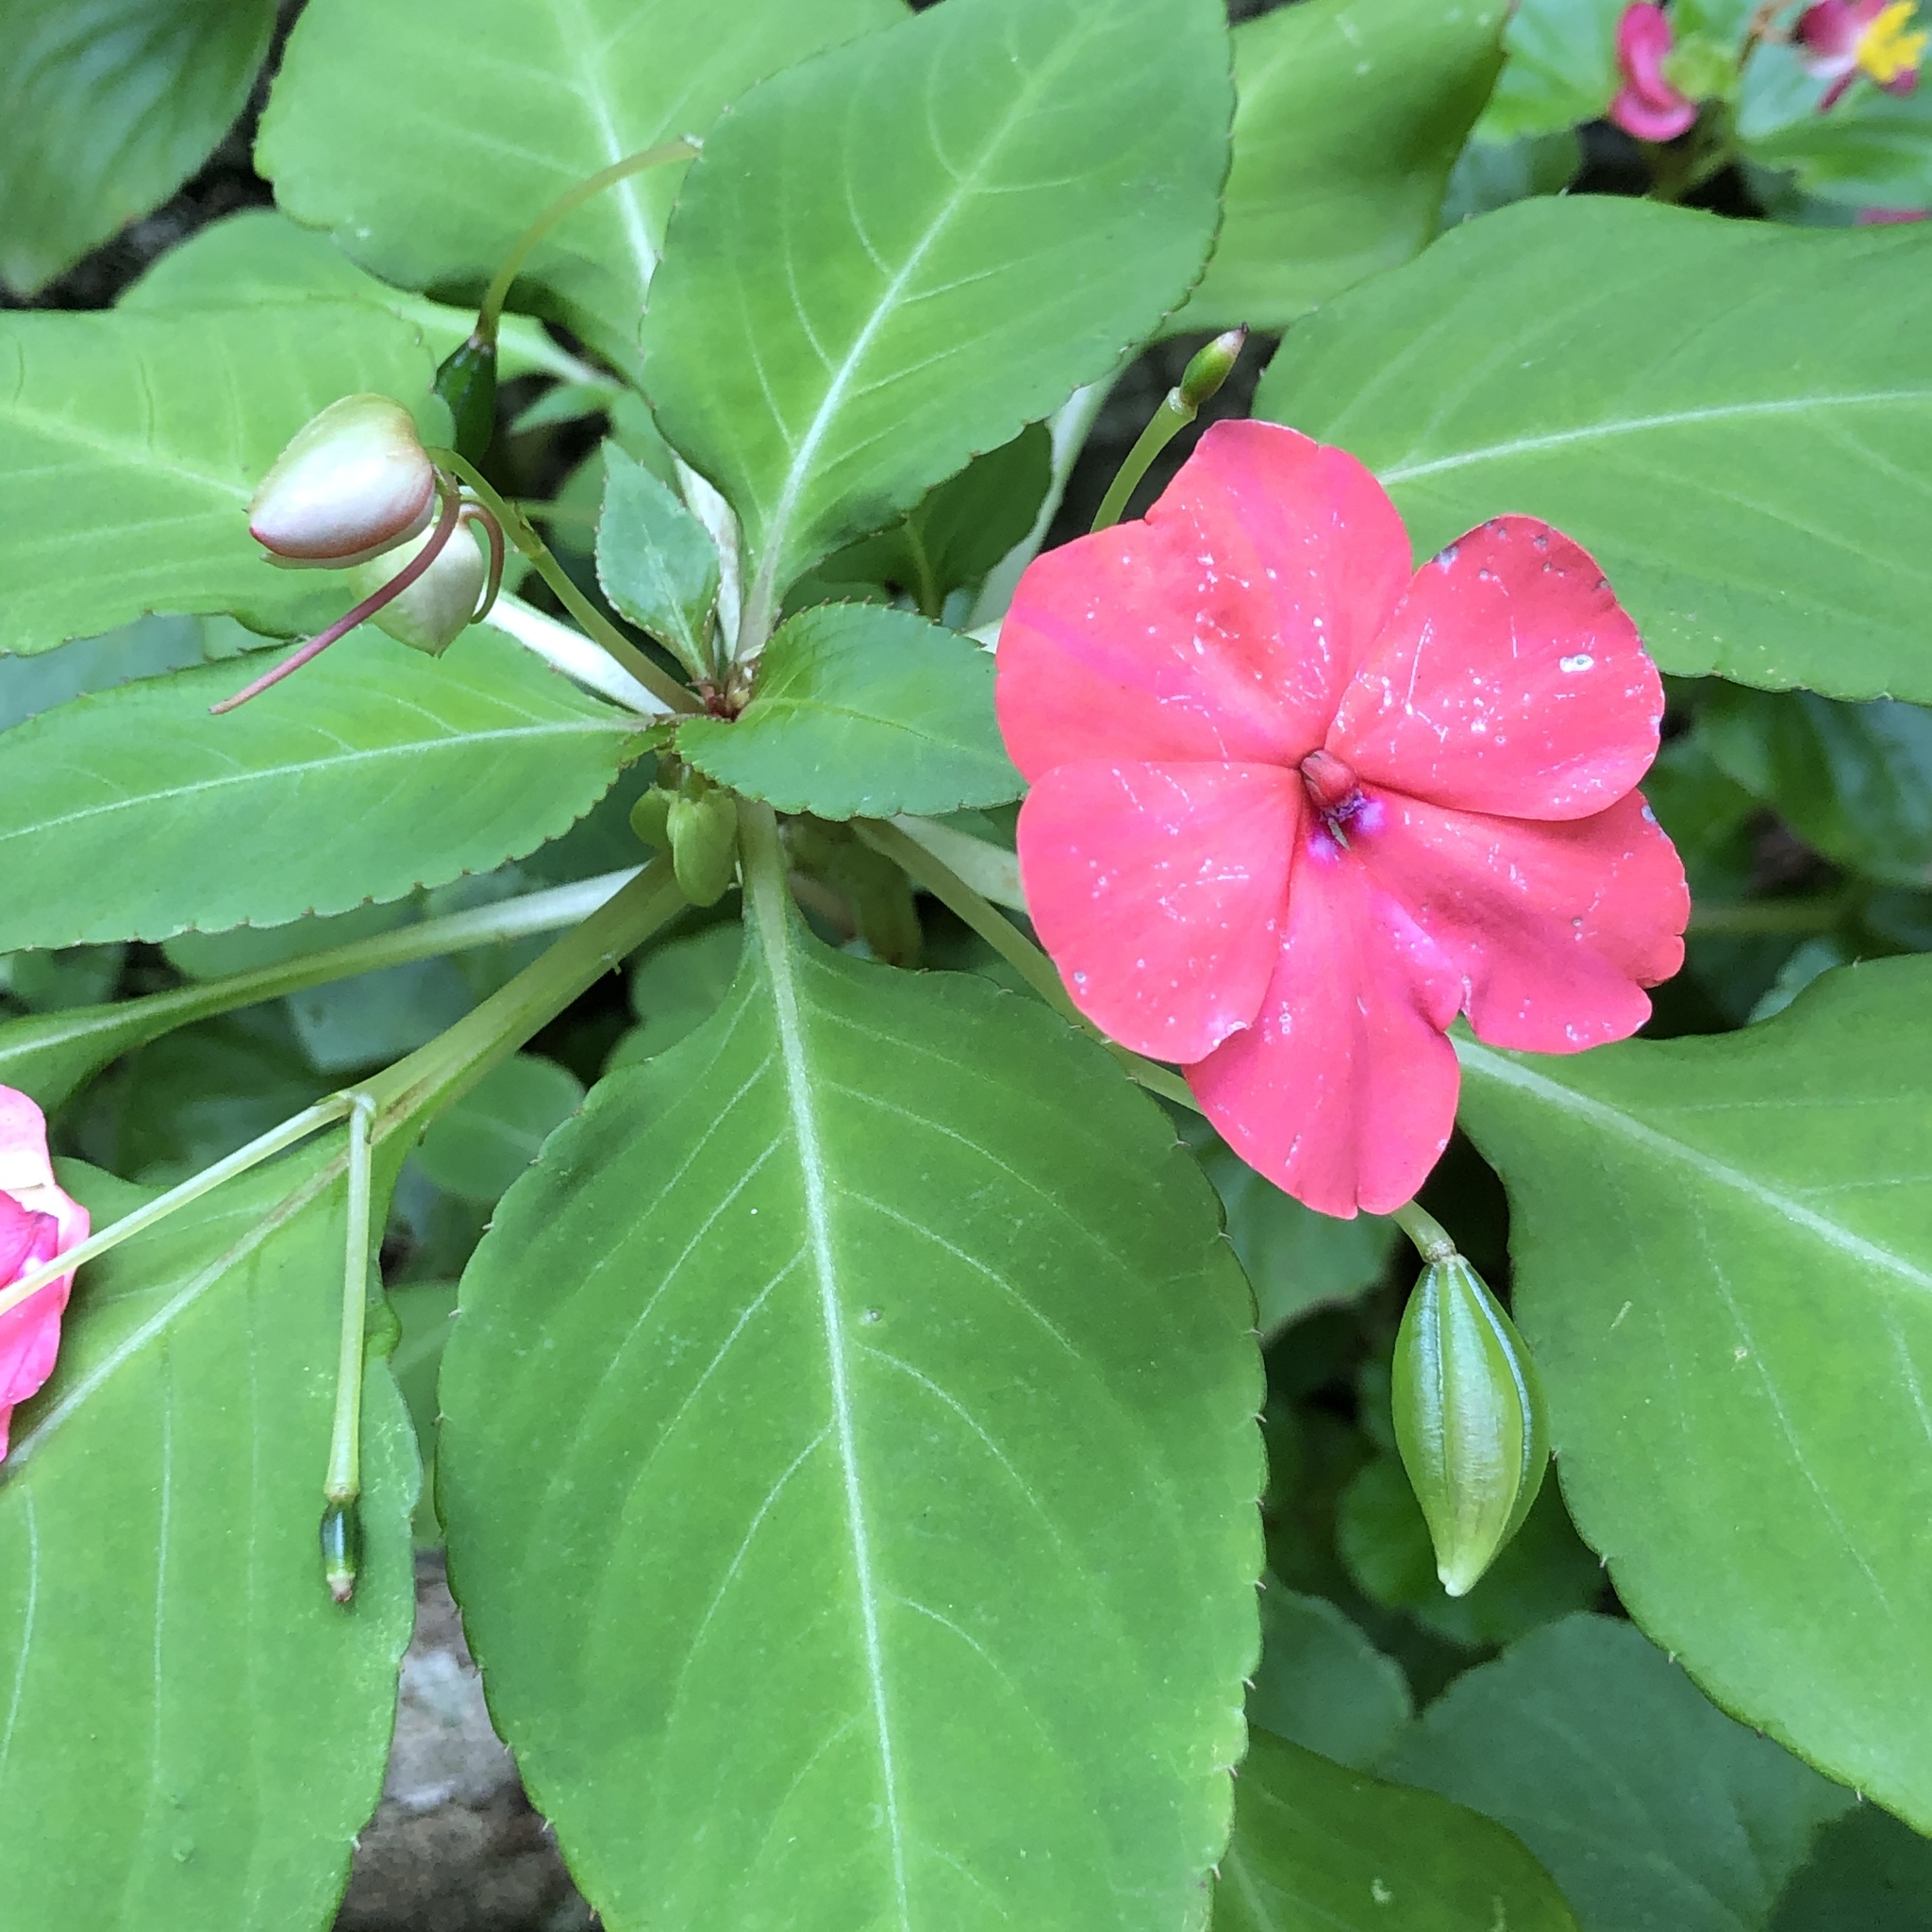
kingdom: Plantae
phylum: Tracheophyta
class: Magnoliopsida
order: Ericales
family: Balsaminaceae
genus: Impatiens
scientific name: Impatiens walleriana
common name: Buzzy lizzy
